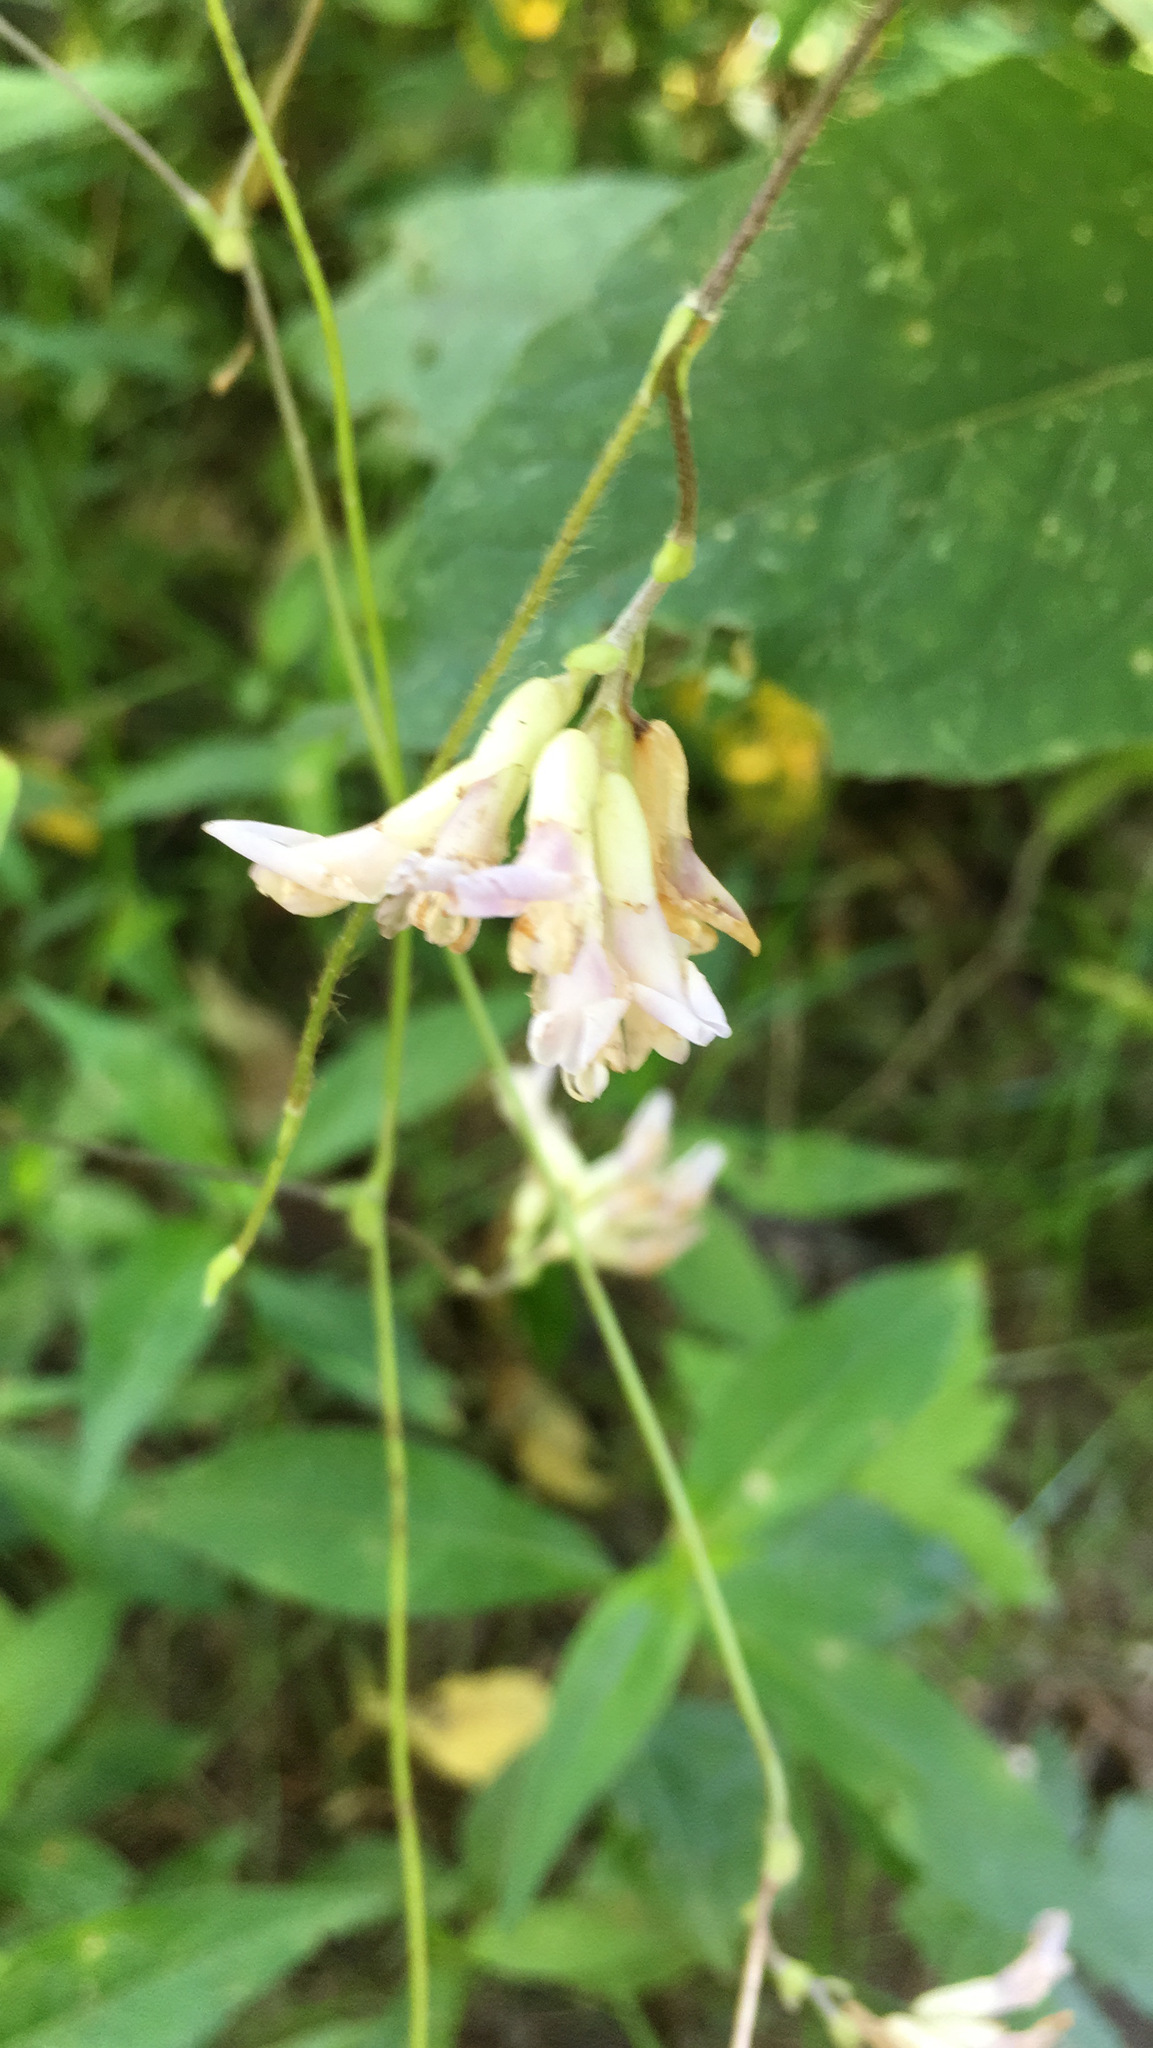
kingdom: Plantae
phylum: Tracheophyta
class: Magnoliopsida
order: Fabales
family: Fabaceae
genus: Amphicarpaea
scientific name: Amphicarpaea bracteata
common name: American hog peanut
